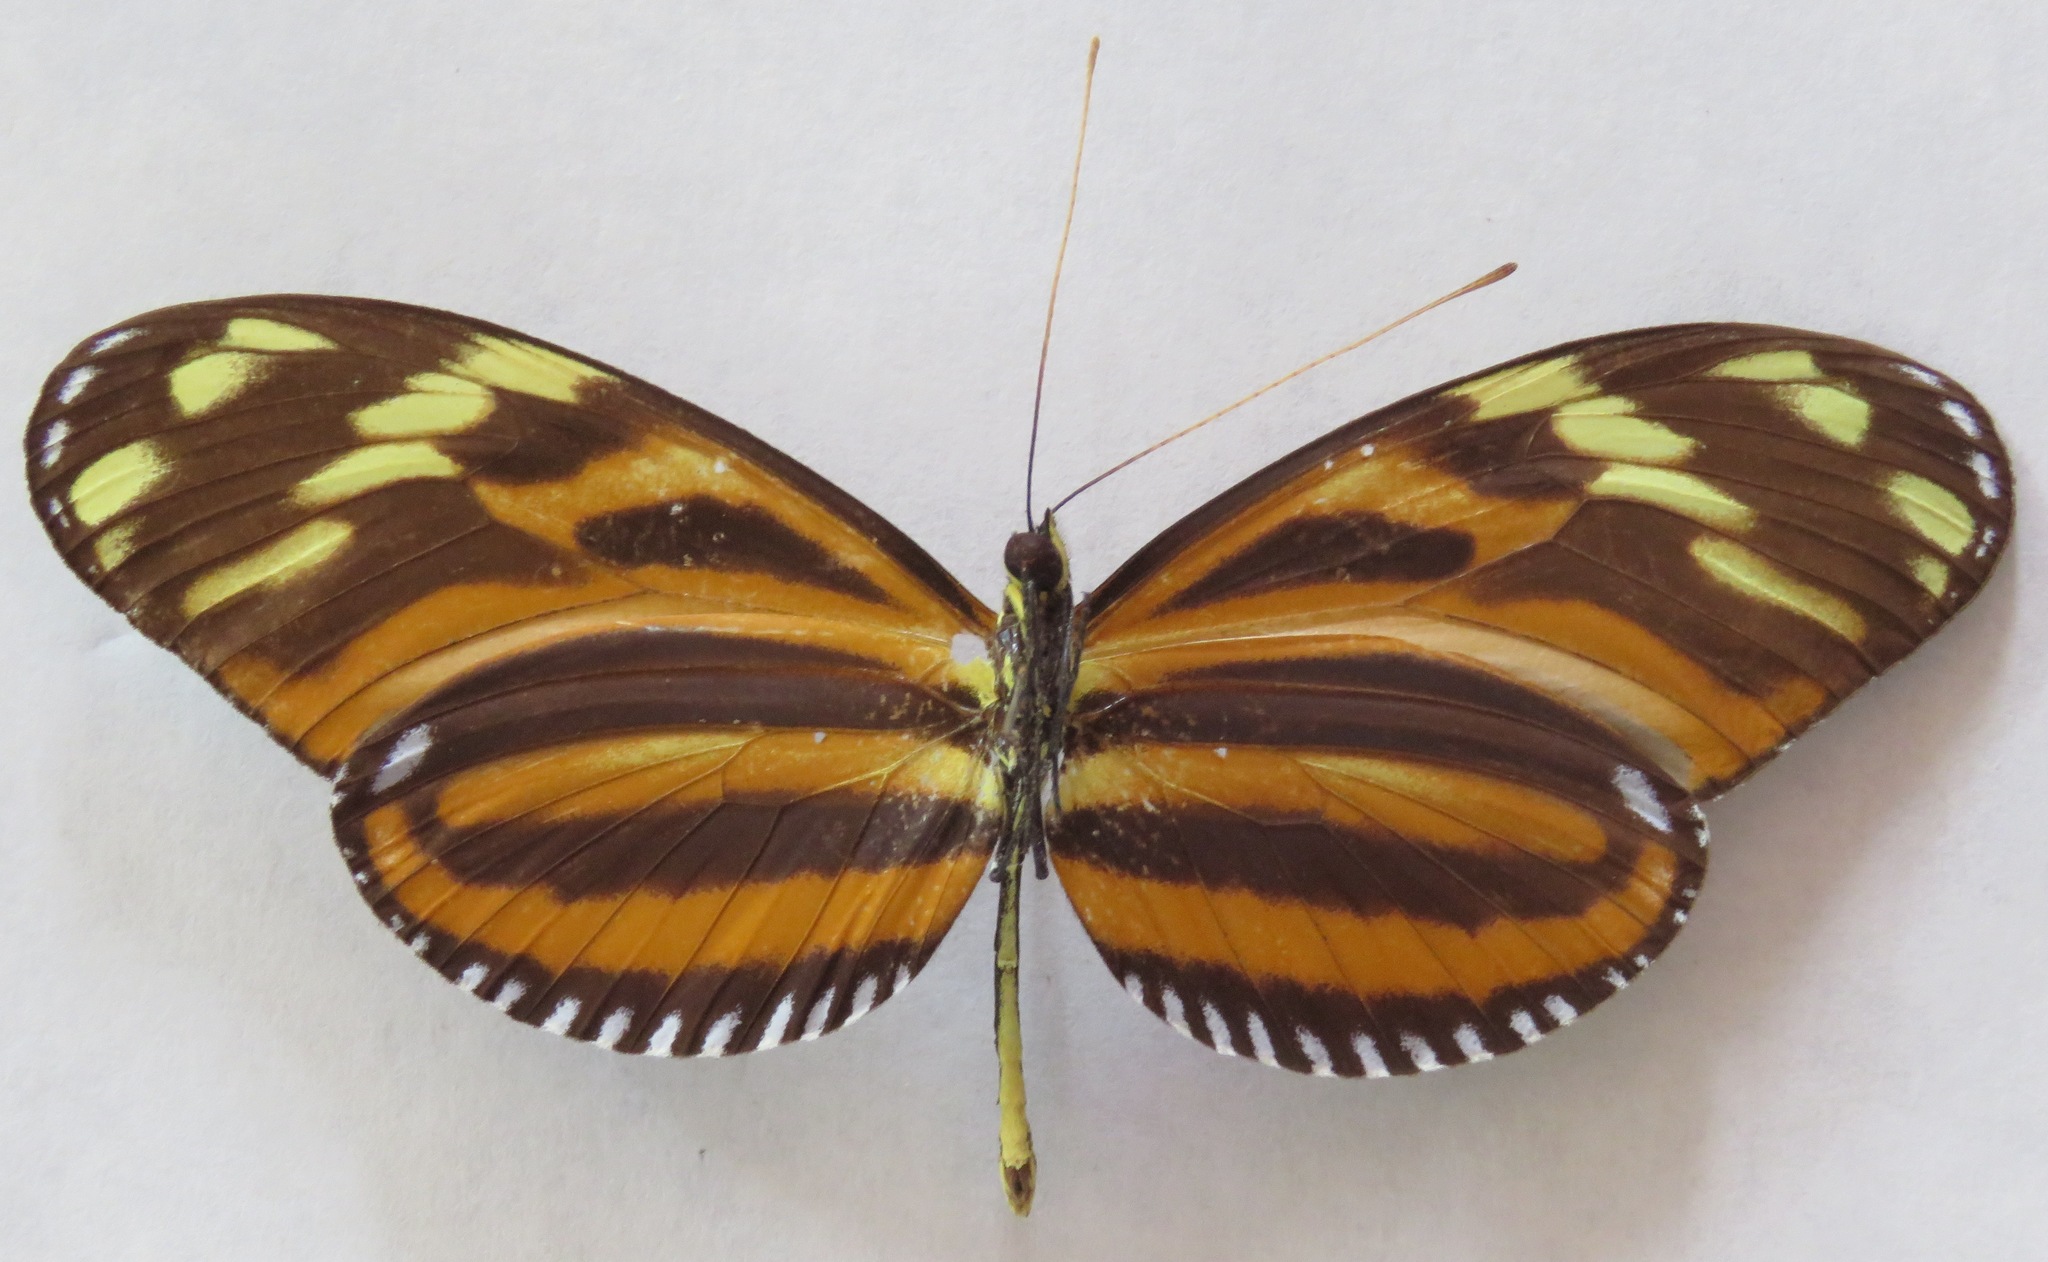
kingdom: Animalia
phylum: Arthropoda
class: Insecta
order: Lepidoptera
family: Nymphalidae
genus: Heliconius
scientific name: Heliconius ismenius
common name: Ismenius tiger
